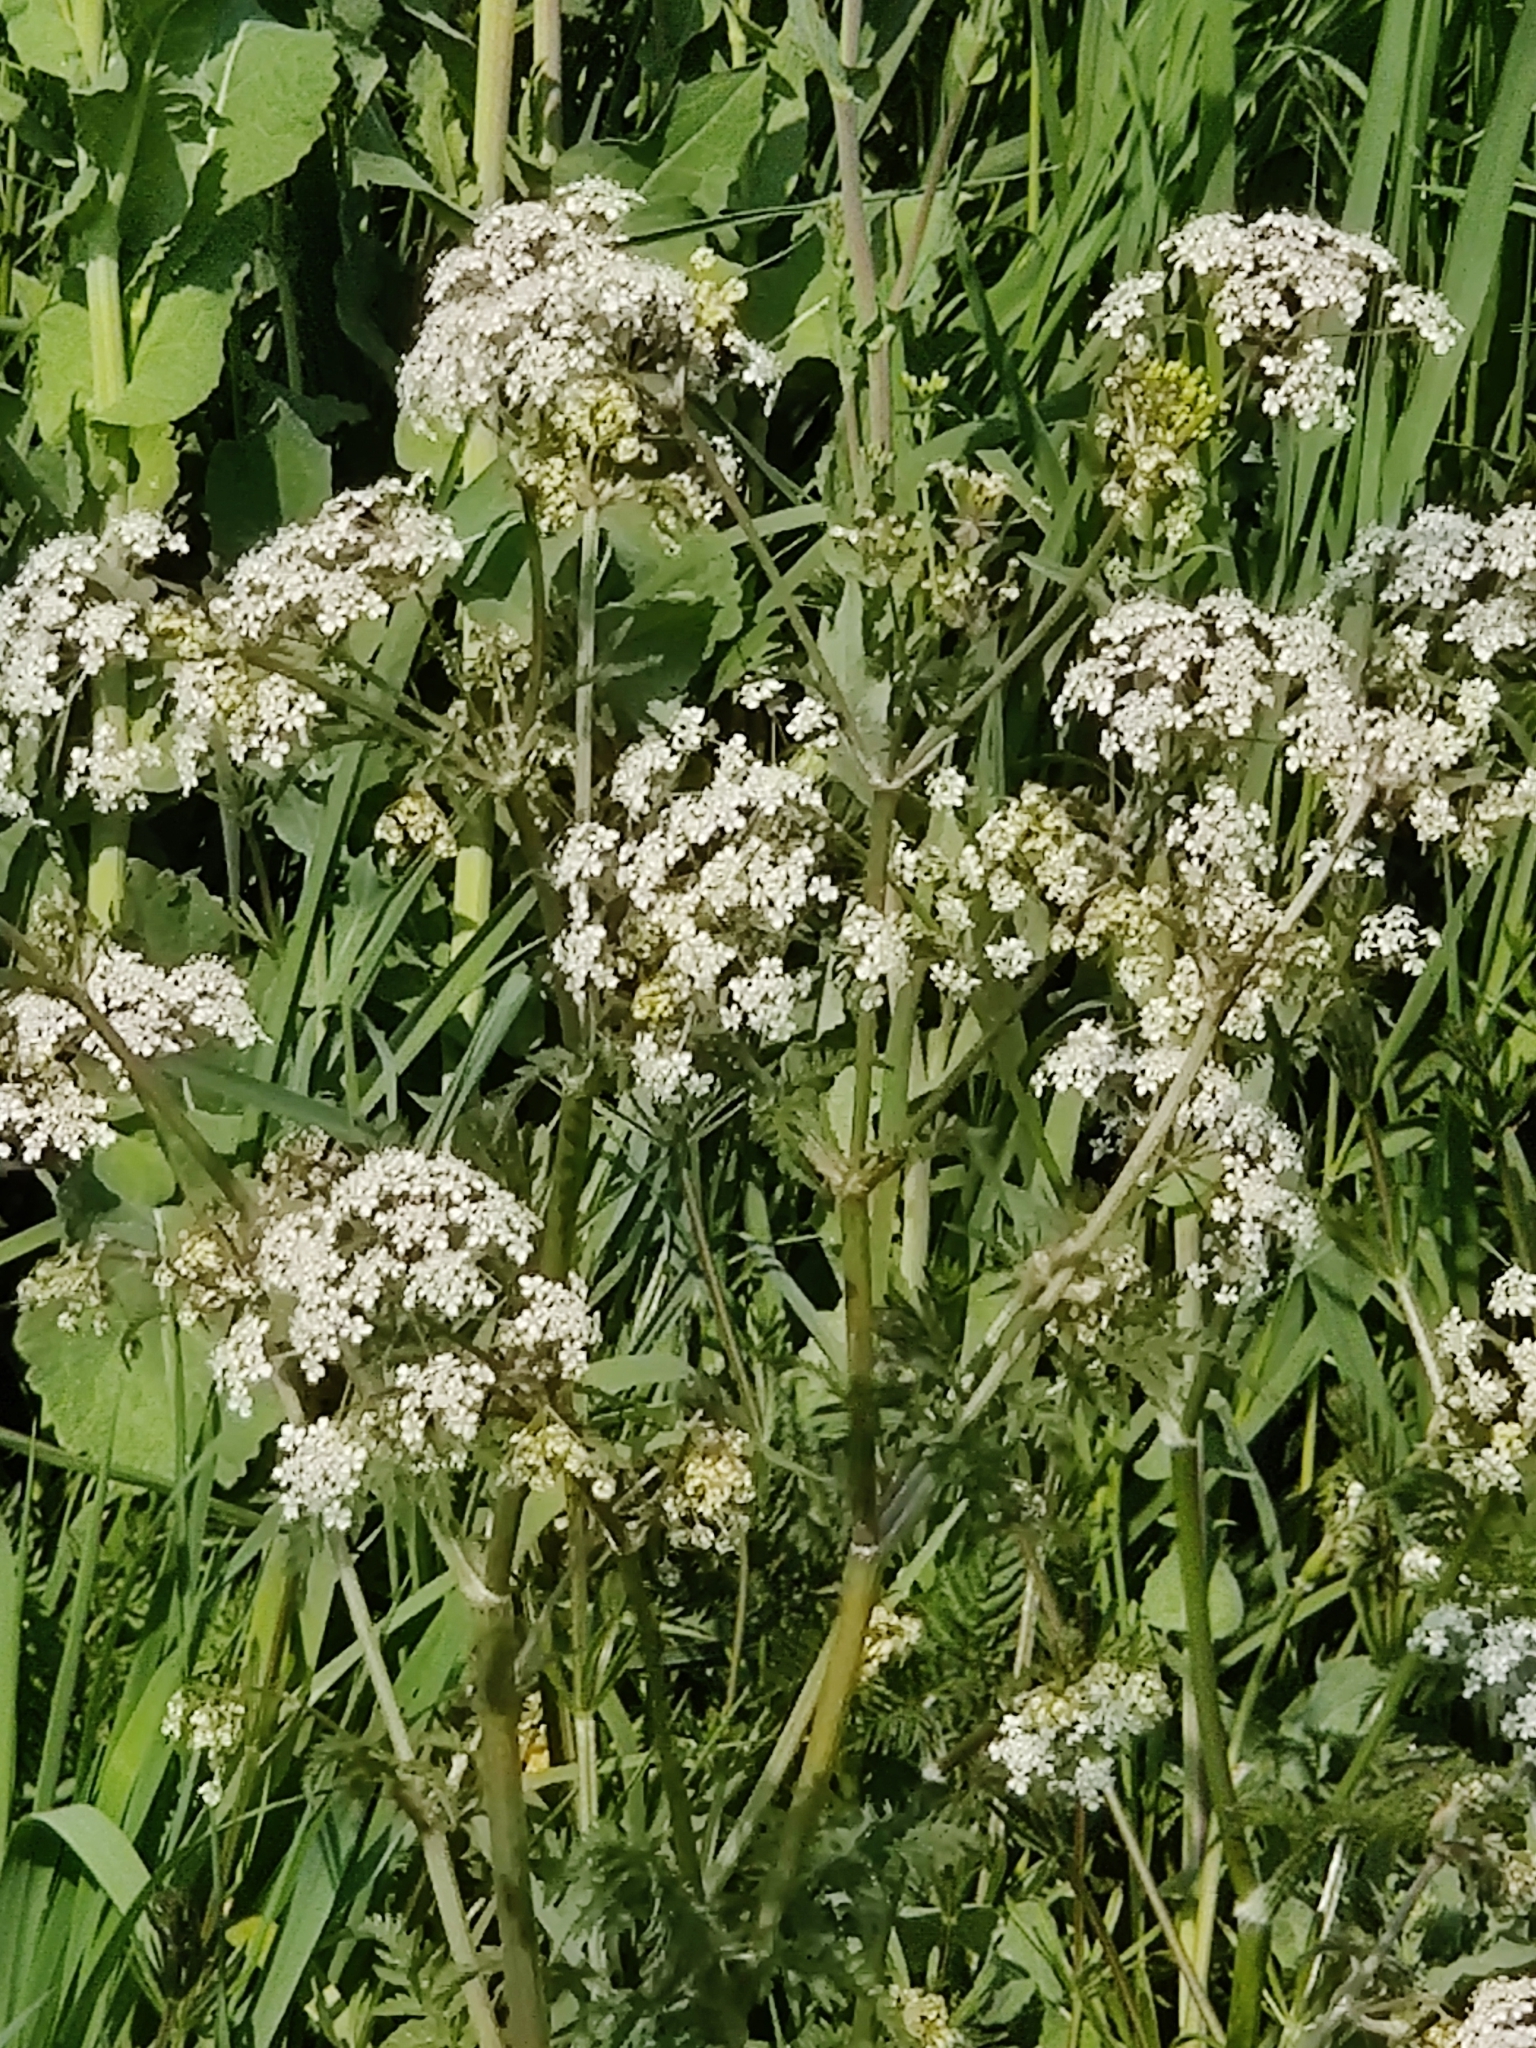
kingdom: Plantae
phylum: Tracheophyta
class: Magnoliopsida
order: Apiales
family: Apiaceae
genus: Anthriscus
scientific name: Anthriscus sylvestris
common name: Cow parsley
